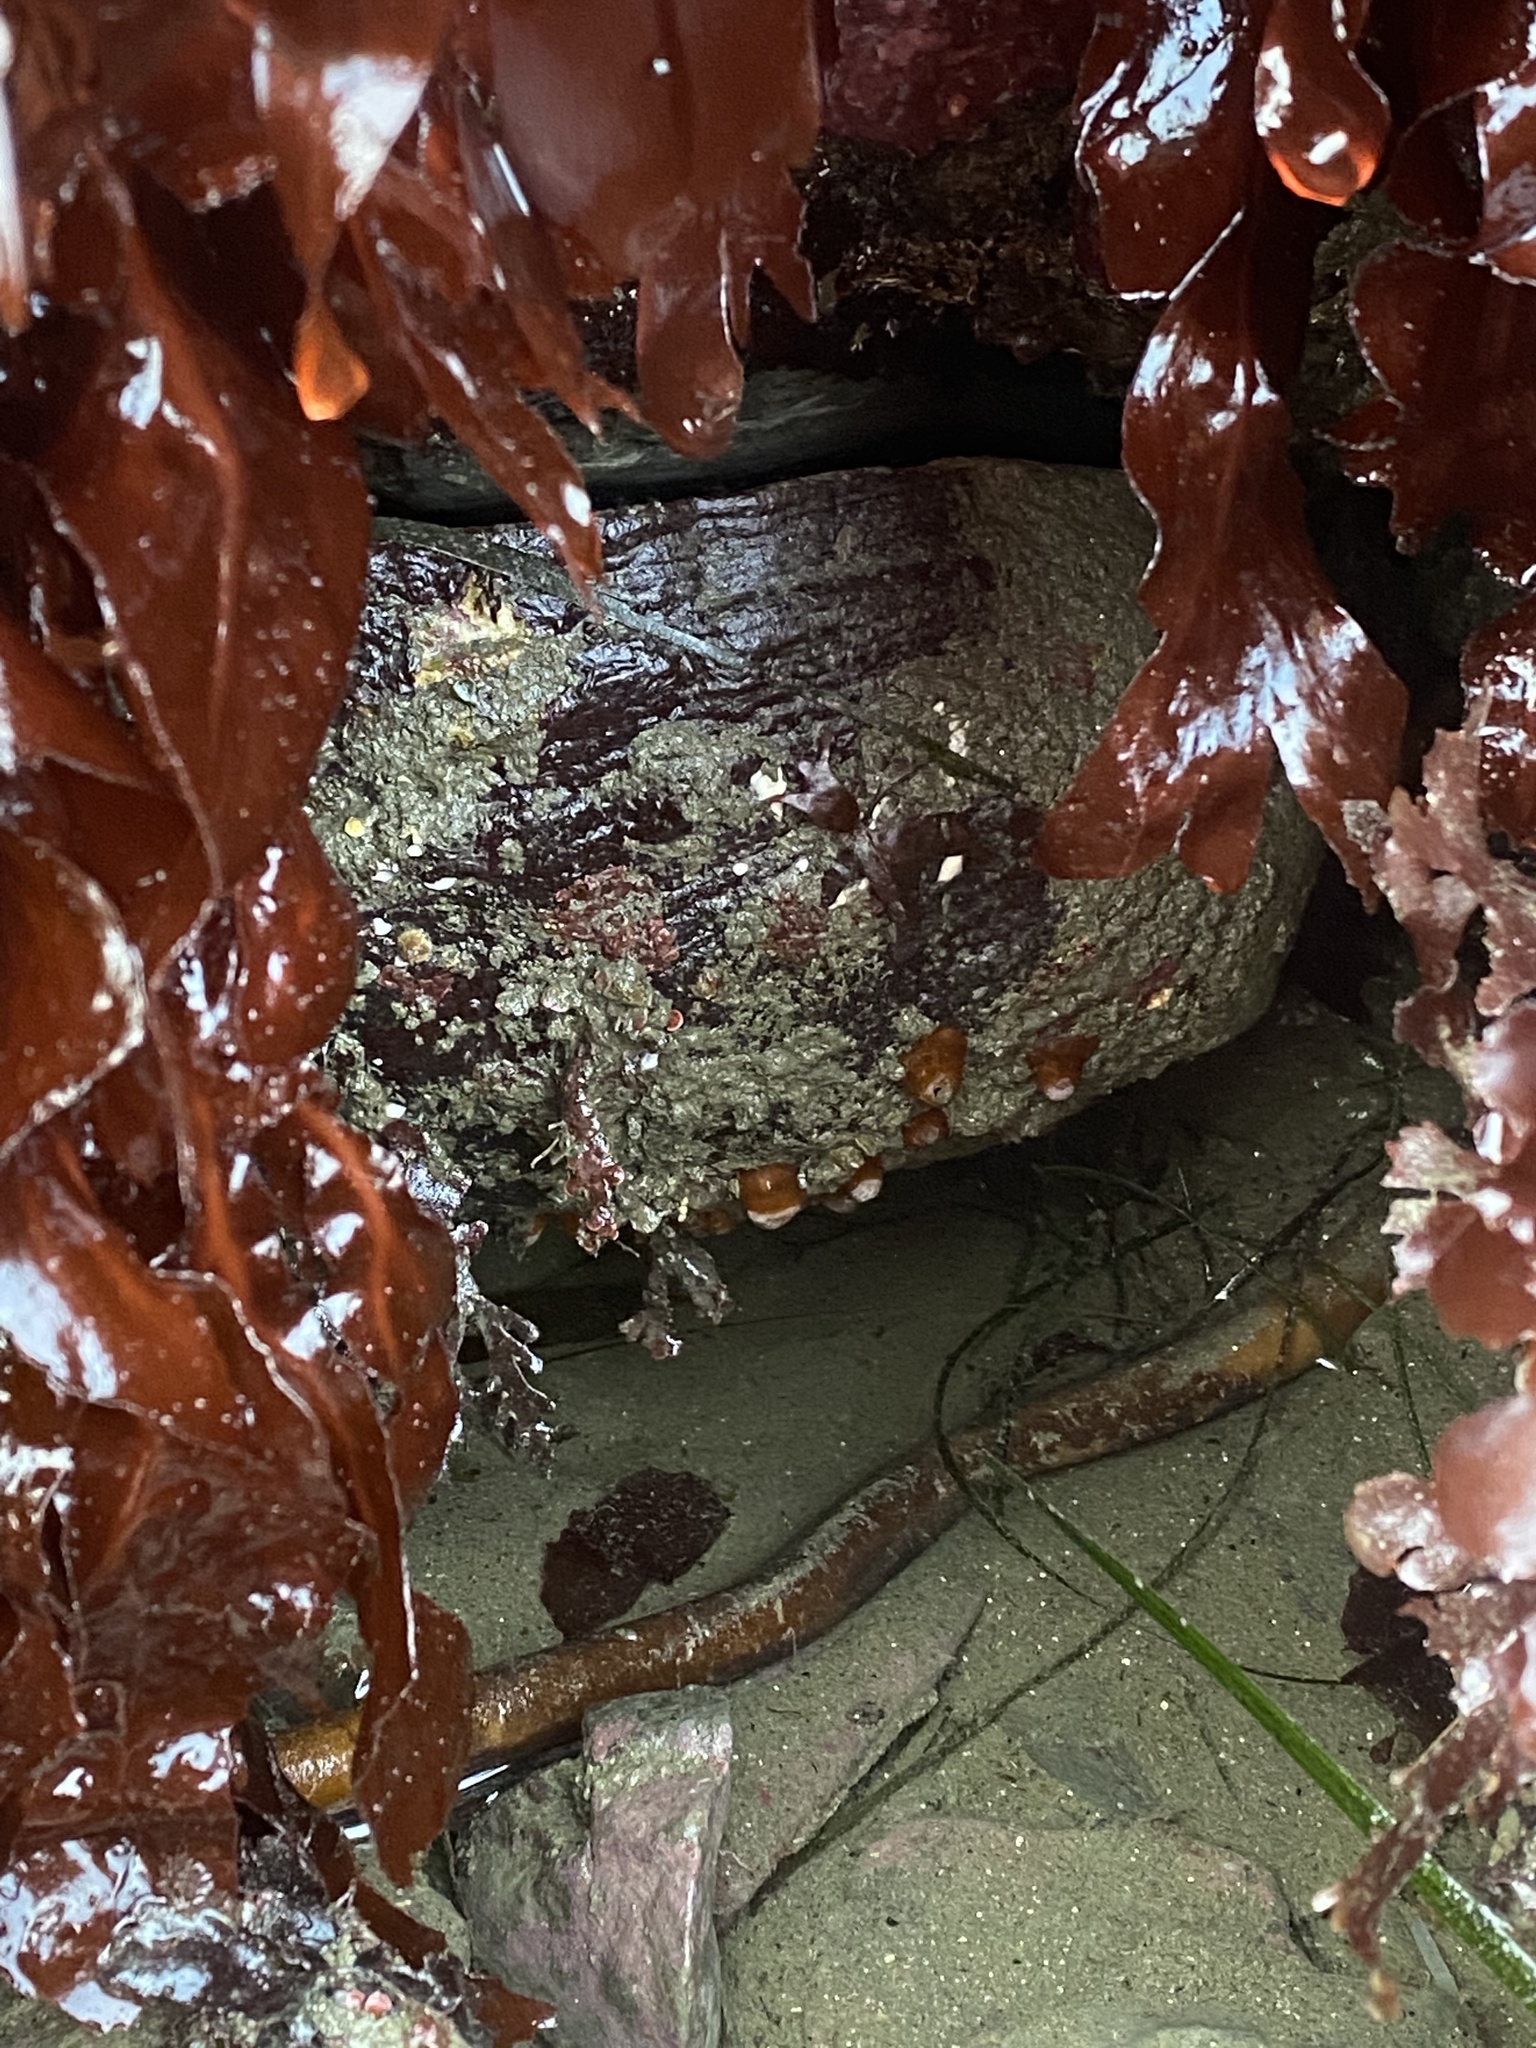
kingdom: Animalia
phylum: Mollusca
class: Gastropoda
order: Lepetellida
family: Haliotidae
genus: Haliotis
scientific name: Haliotis rufescens
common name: Red abalone
